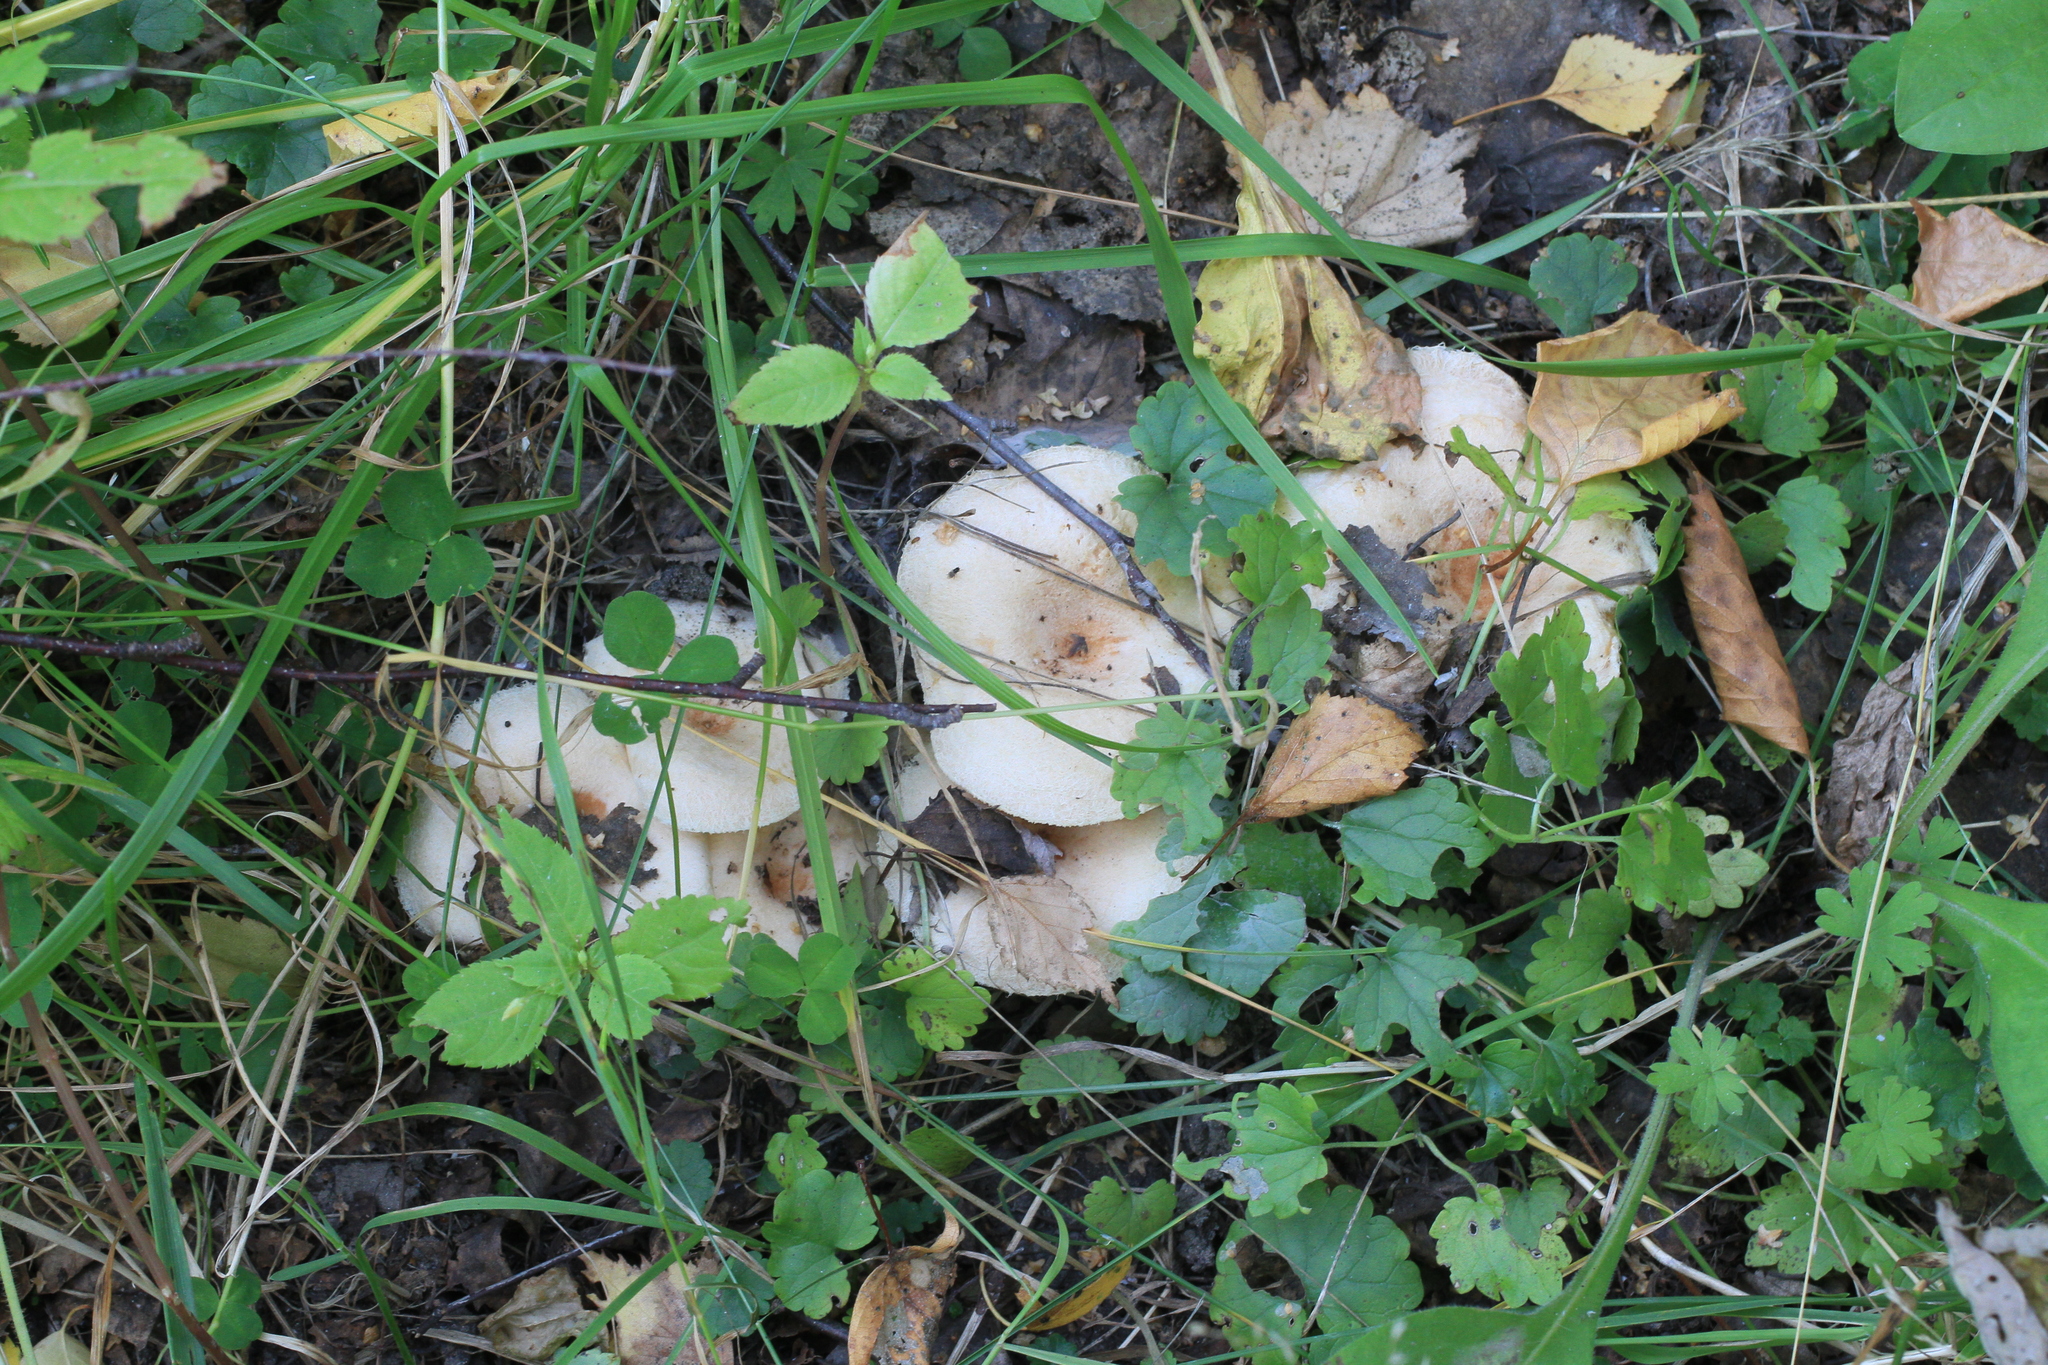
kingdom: Fungi
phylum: Basidiomycota
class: Agaricomycetes
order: Russulales
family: Russulaceae
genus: Lactarius
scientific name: Lactarius pubescens
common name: Bearded milkcap
